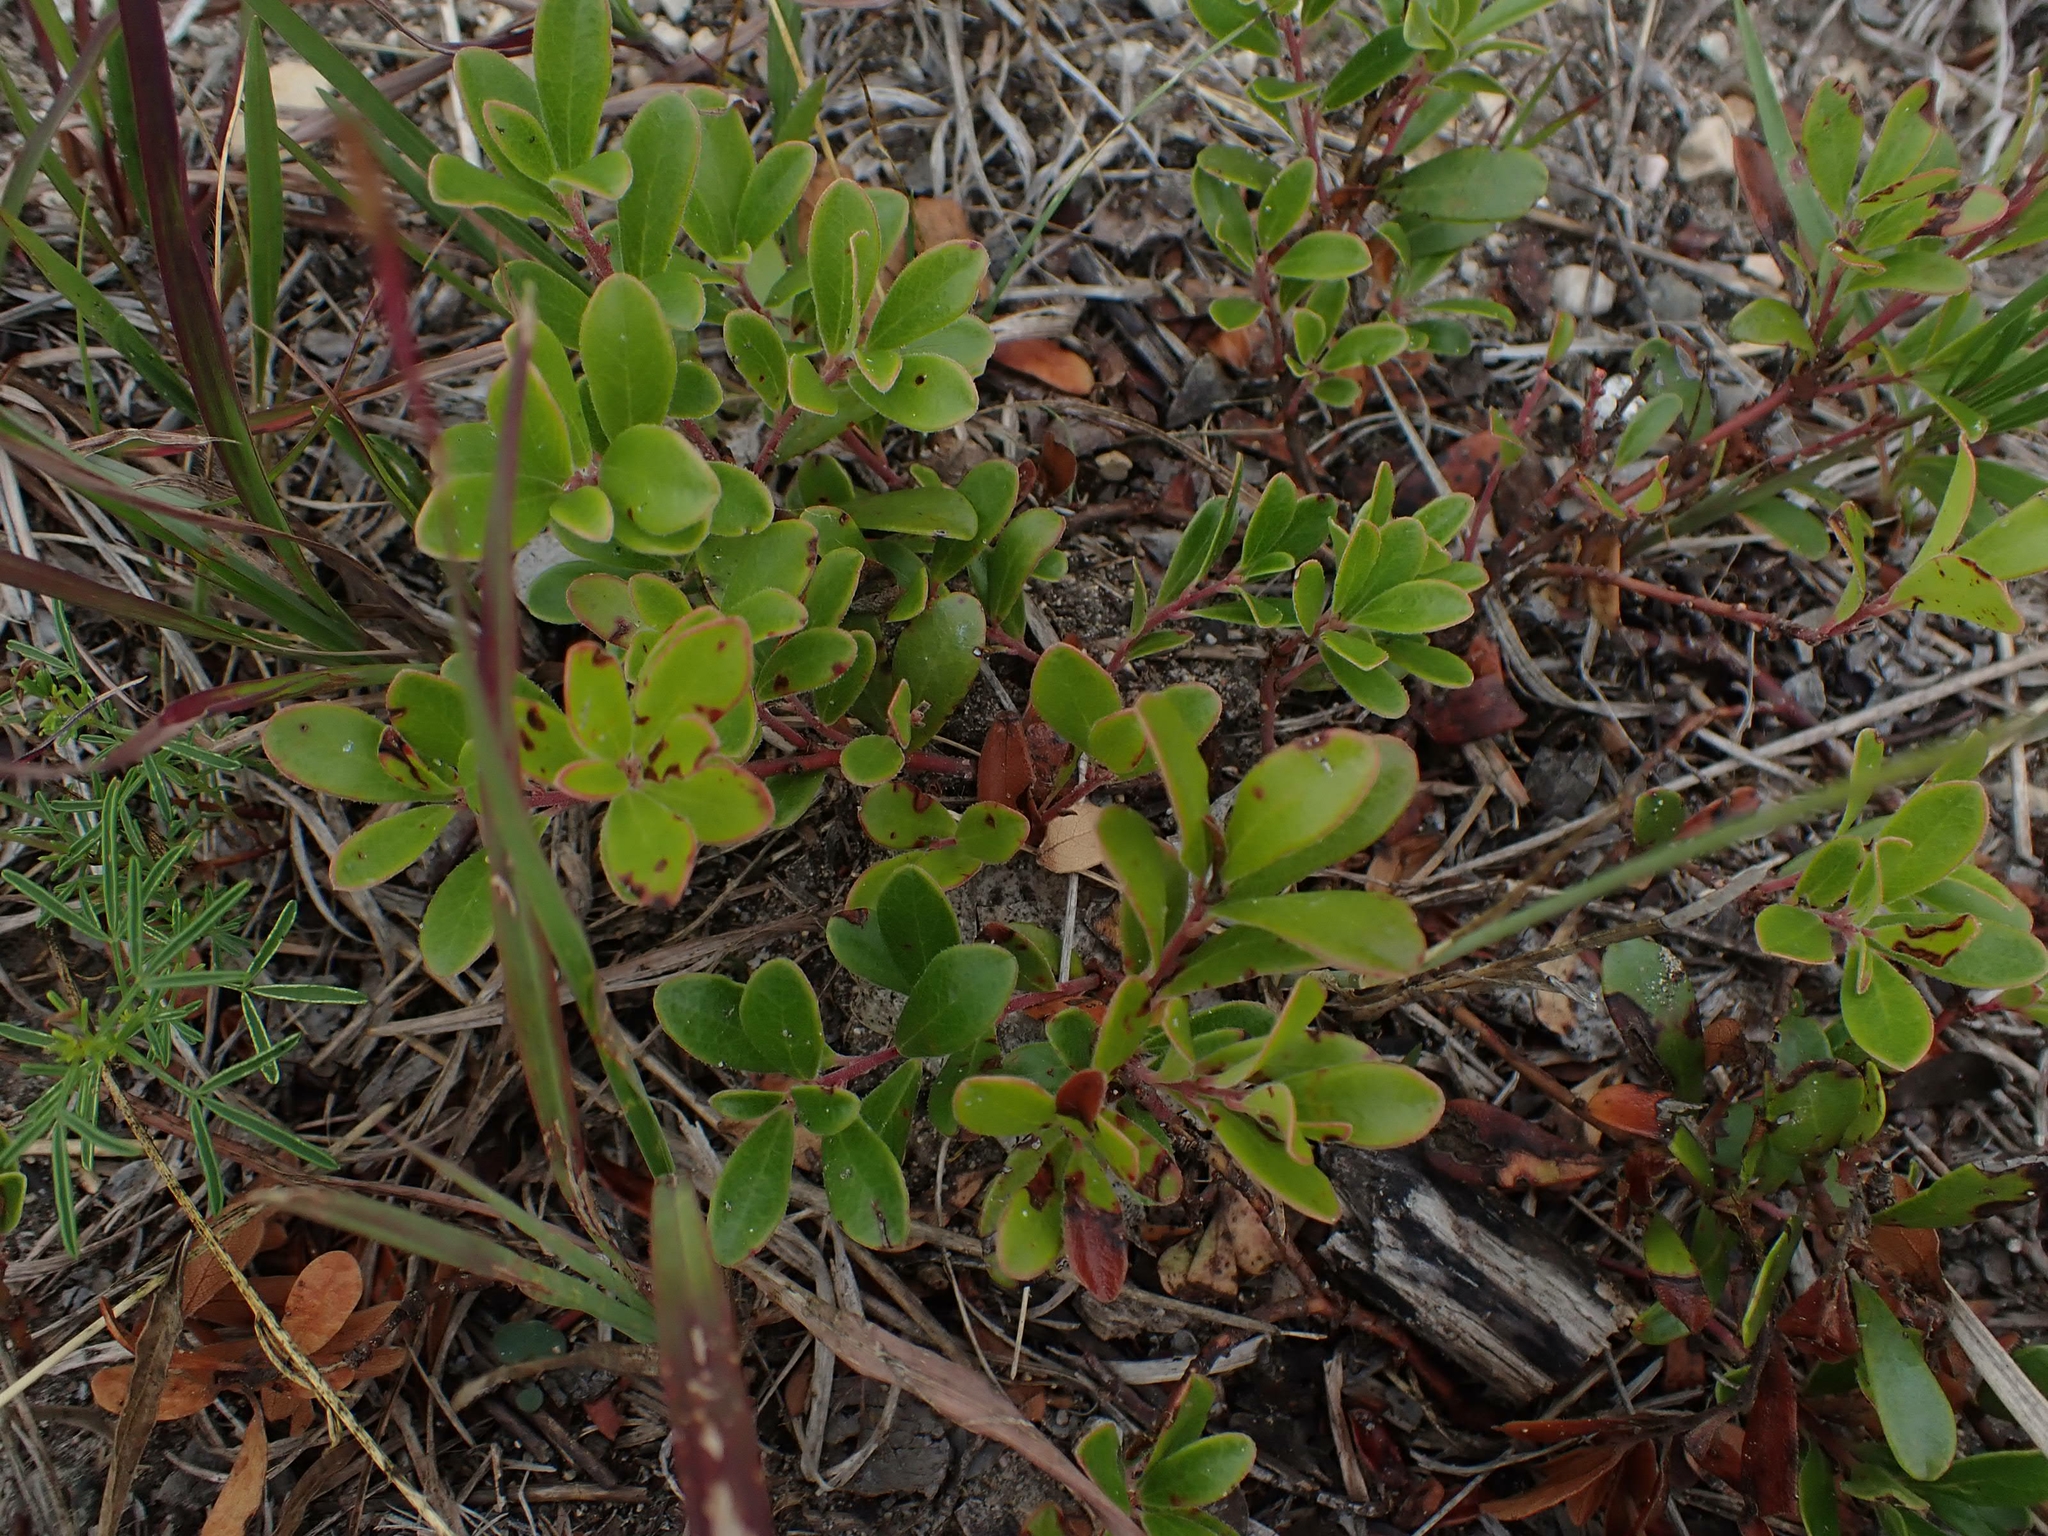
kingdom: Plantae
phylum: Tracheophyta
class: Magnoliopsida
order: Ericales
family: Ericaceae
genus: Arctostaphylos
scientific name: Arctostaphylos uva-ursi
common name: Bearberry
